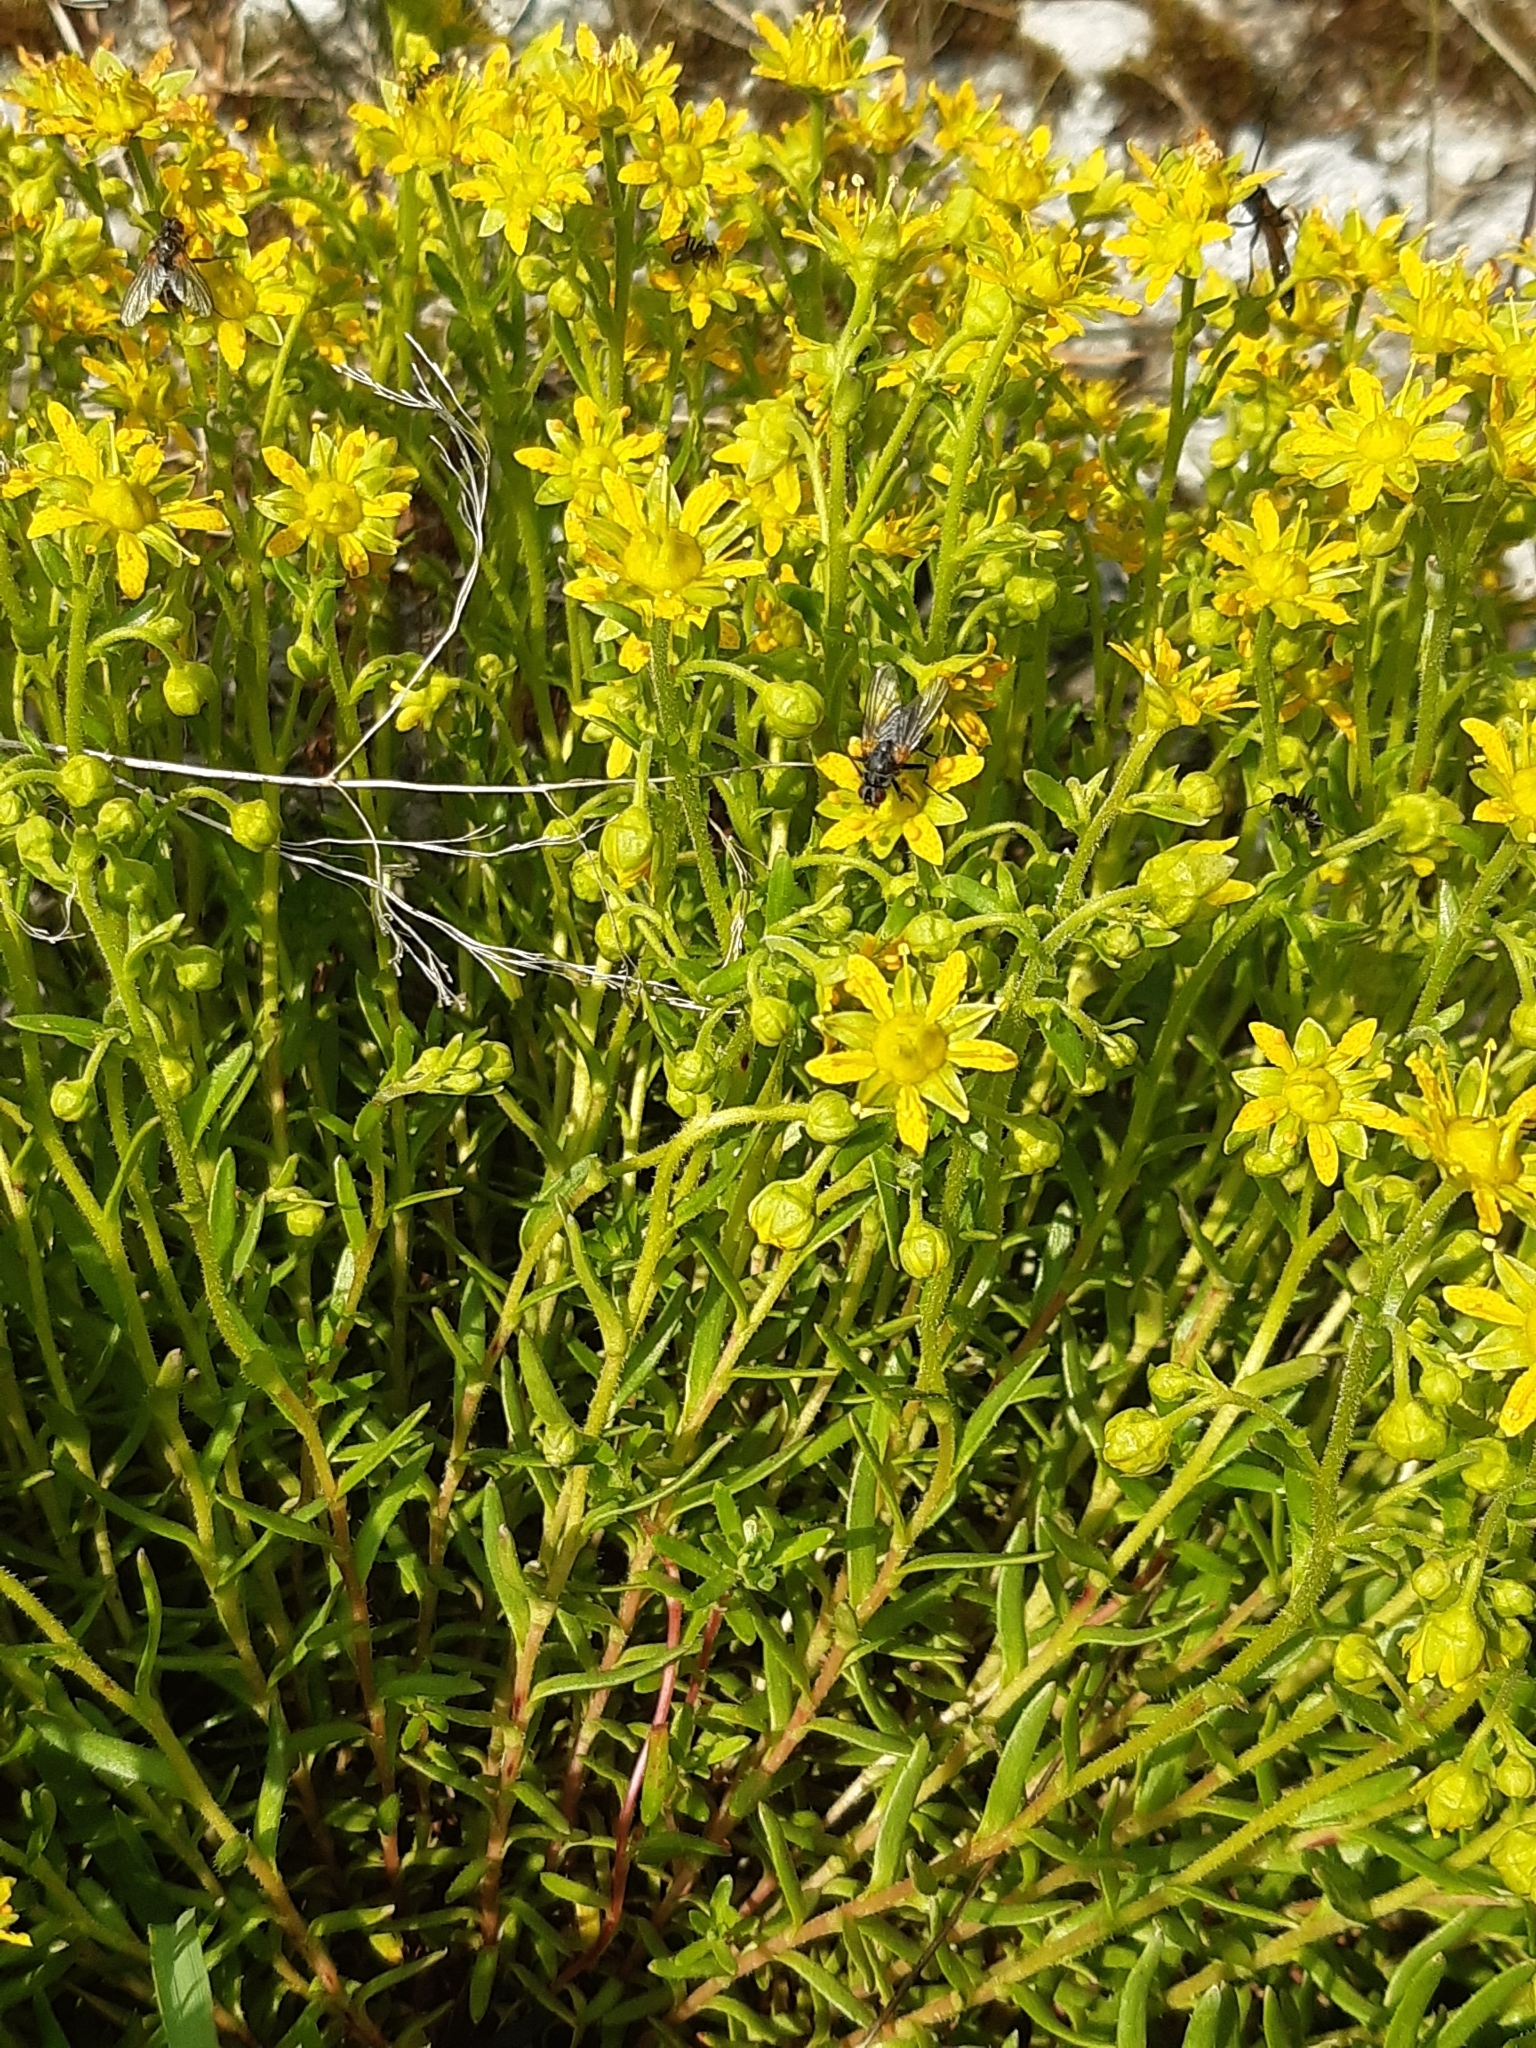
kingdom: Plantae
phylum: Tracheophyta
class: Magnoliopsida
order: Saxifragales
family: Saxifragaceae
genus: Saxifraga
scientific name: Saxifraga aizoides
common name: Yellow mountain saxifrage
